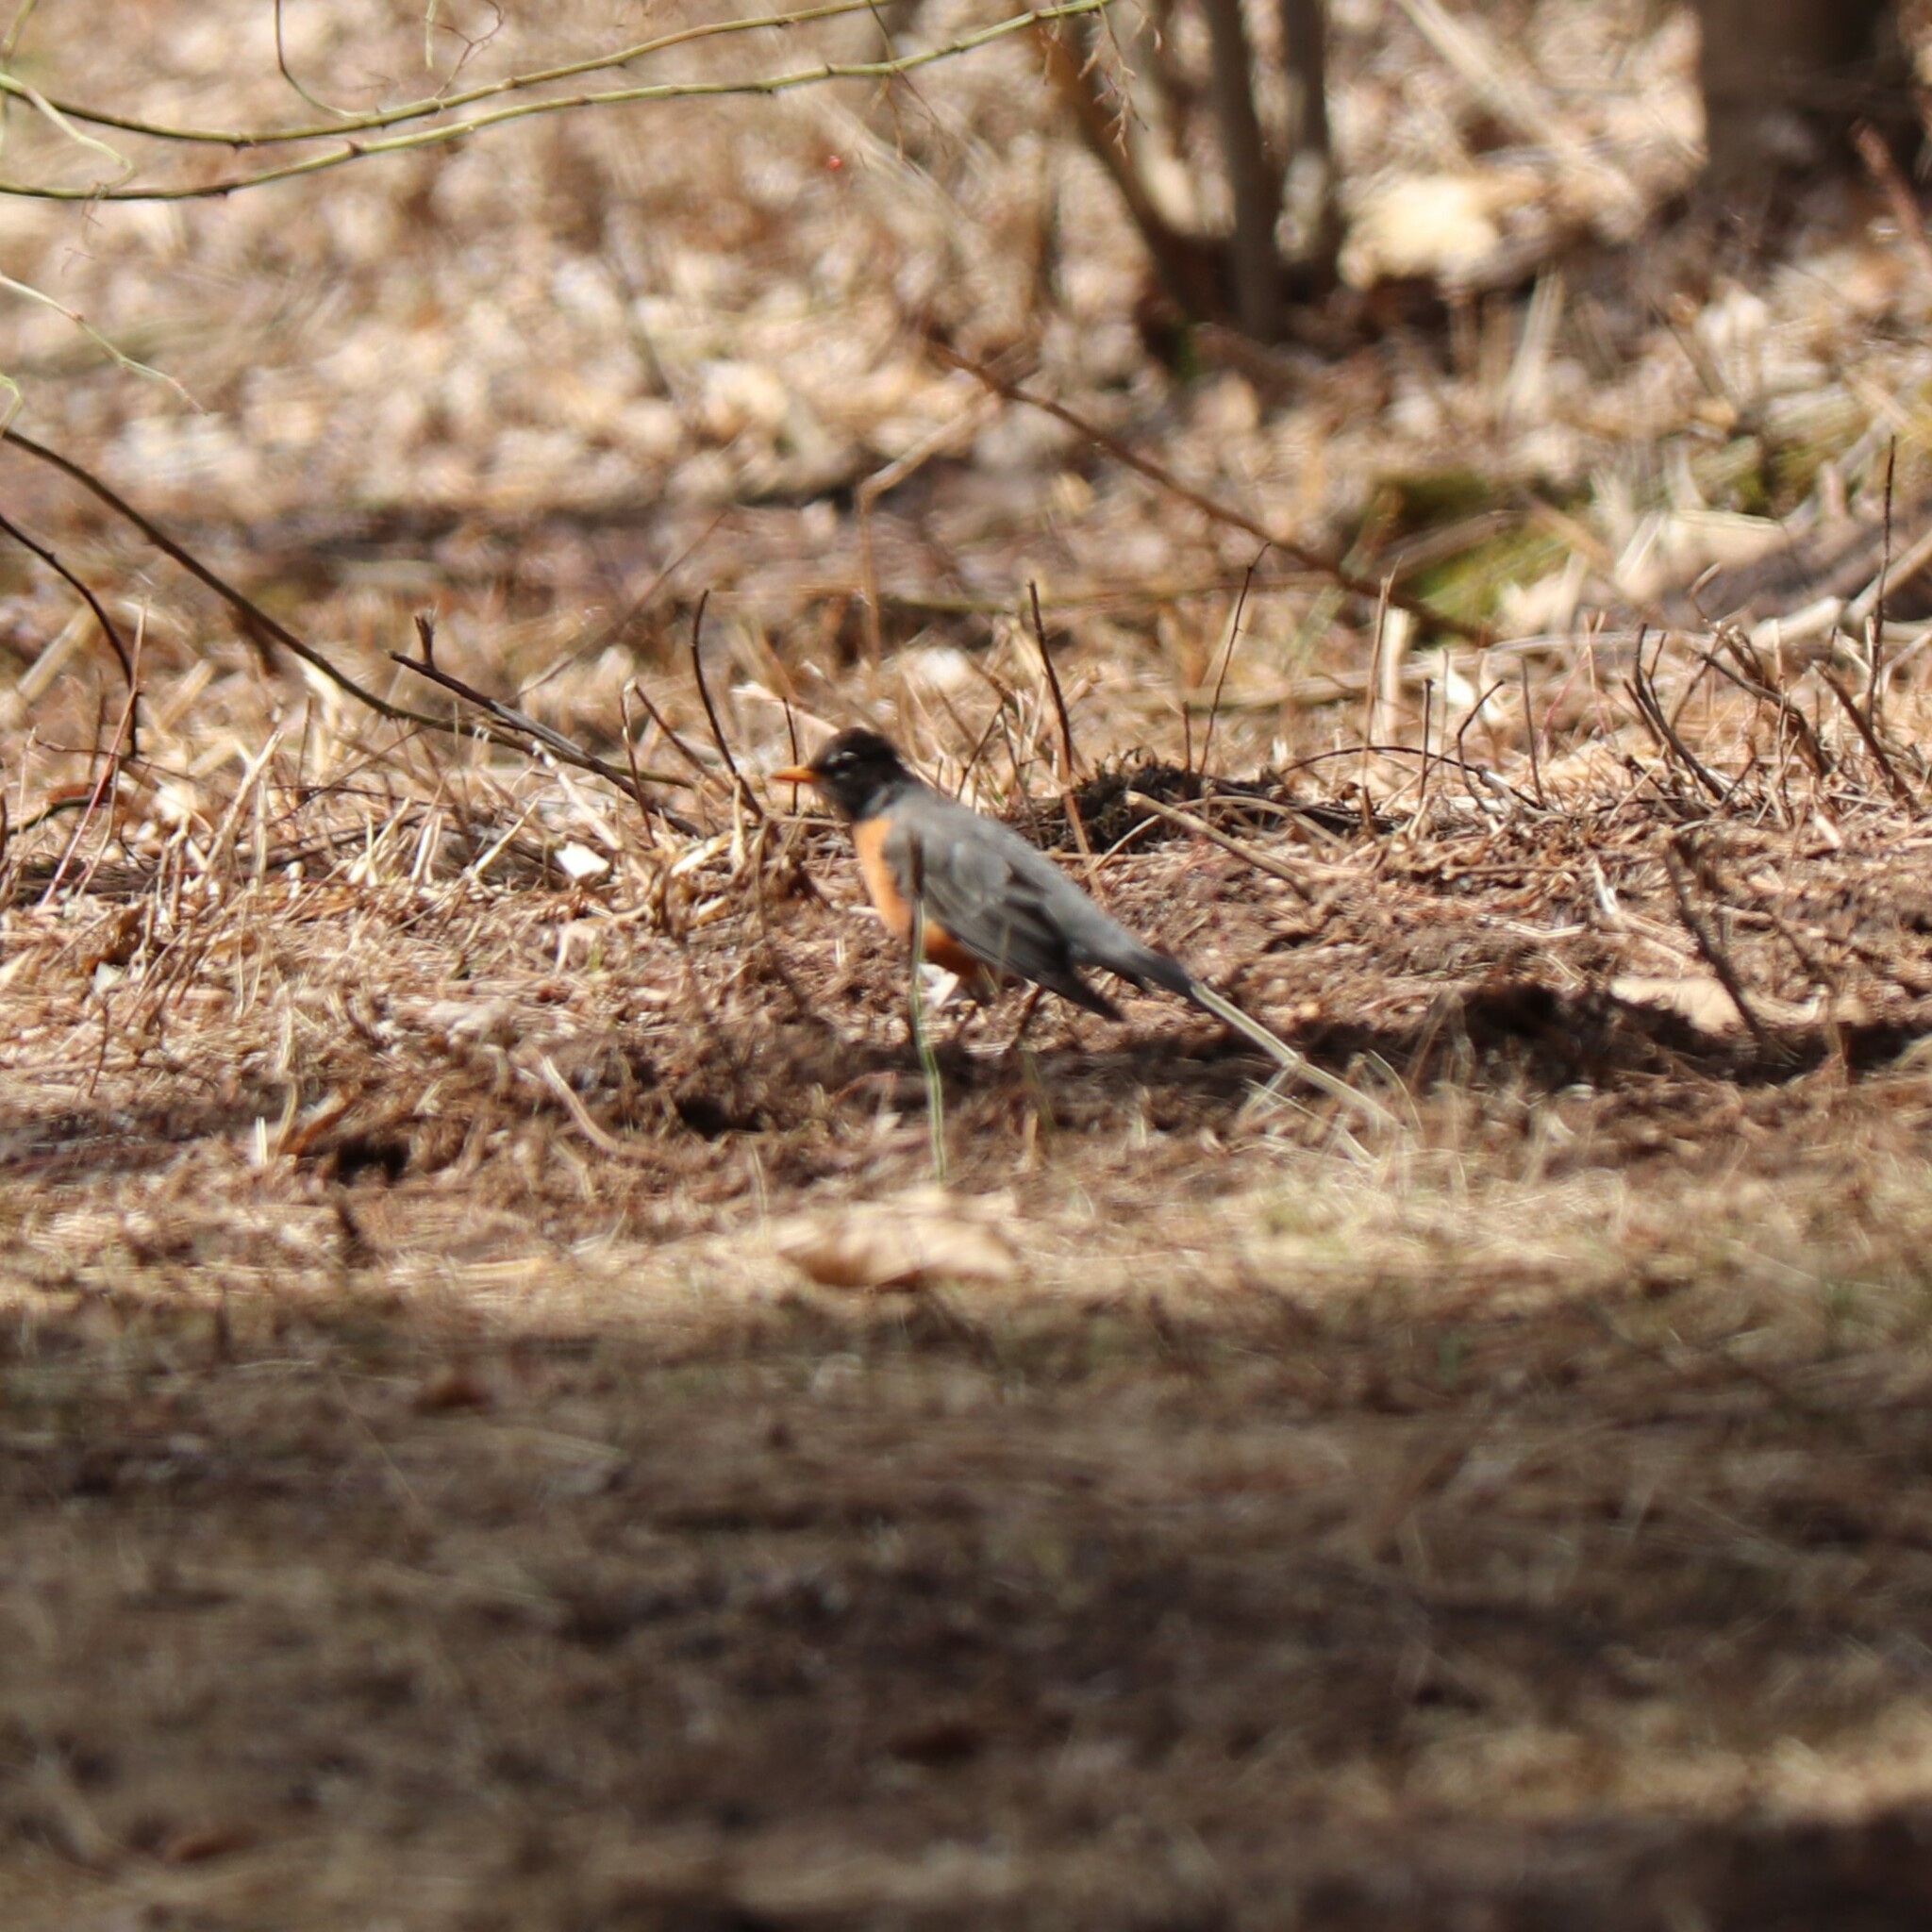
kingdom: Animalia
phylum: Chordata
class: Aves
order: Passeriformes
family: Turdidae
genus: Turdus
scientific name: Turdus migratorius
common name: American robin
